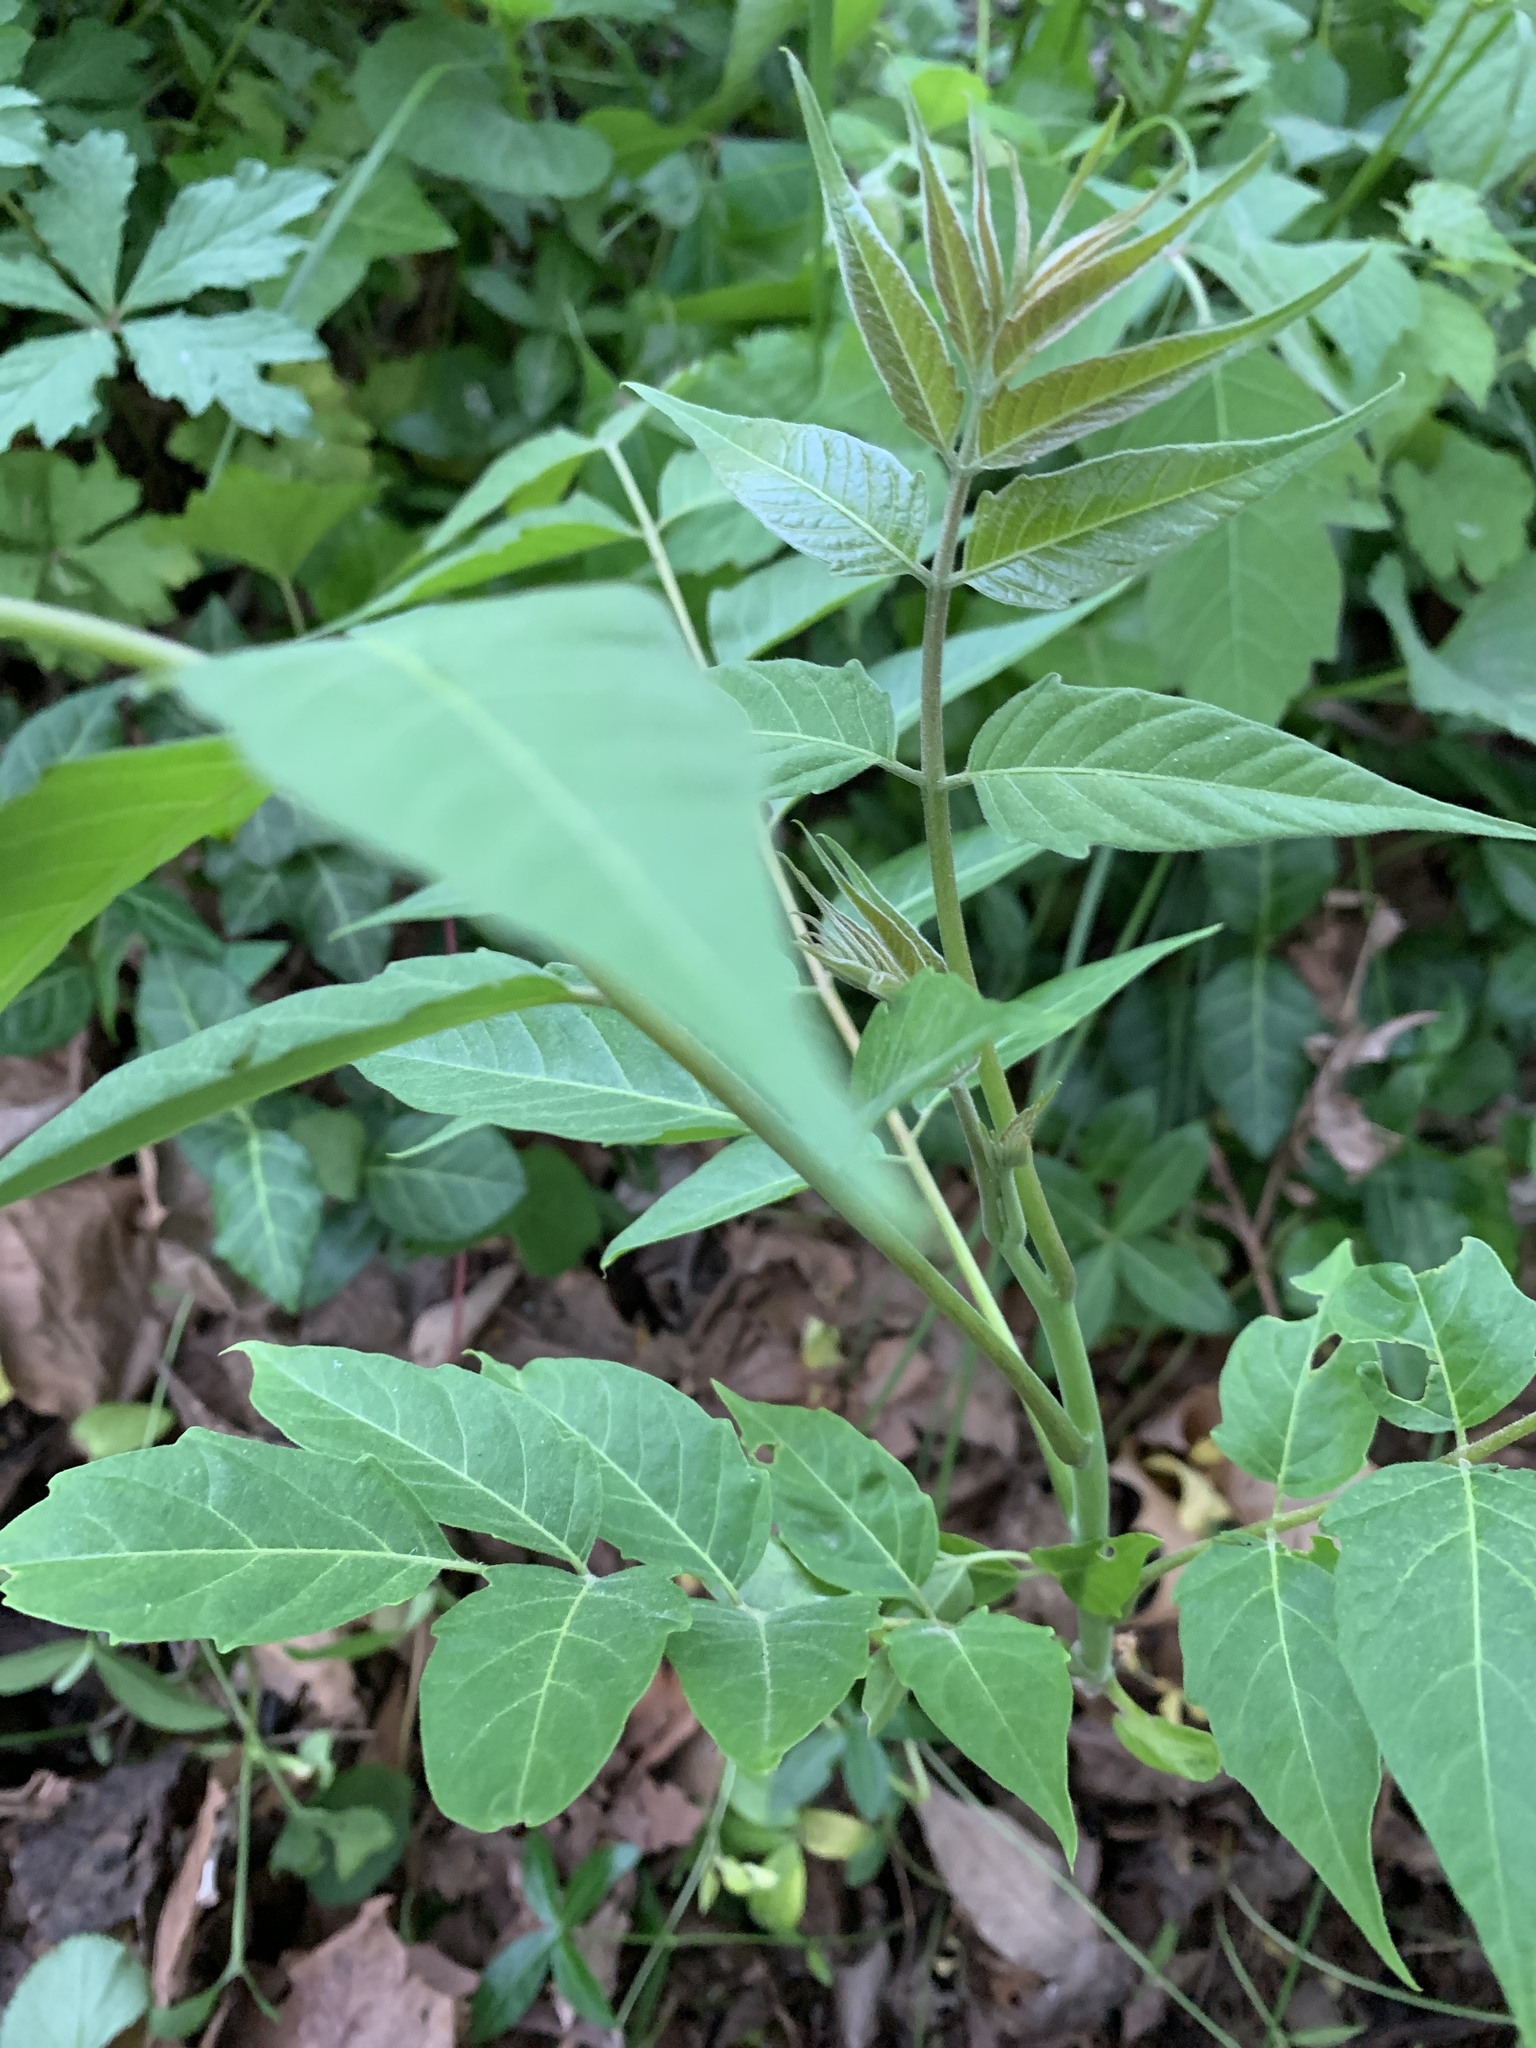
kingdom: Plantae
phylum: Tracheophyta
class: Magnoliopsida
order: Sapindales
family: Simaroubaceae
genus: Ailanthus
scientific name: Ailanthus altissima
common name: Tree-of-heaven
